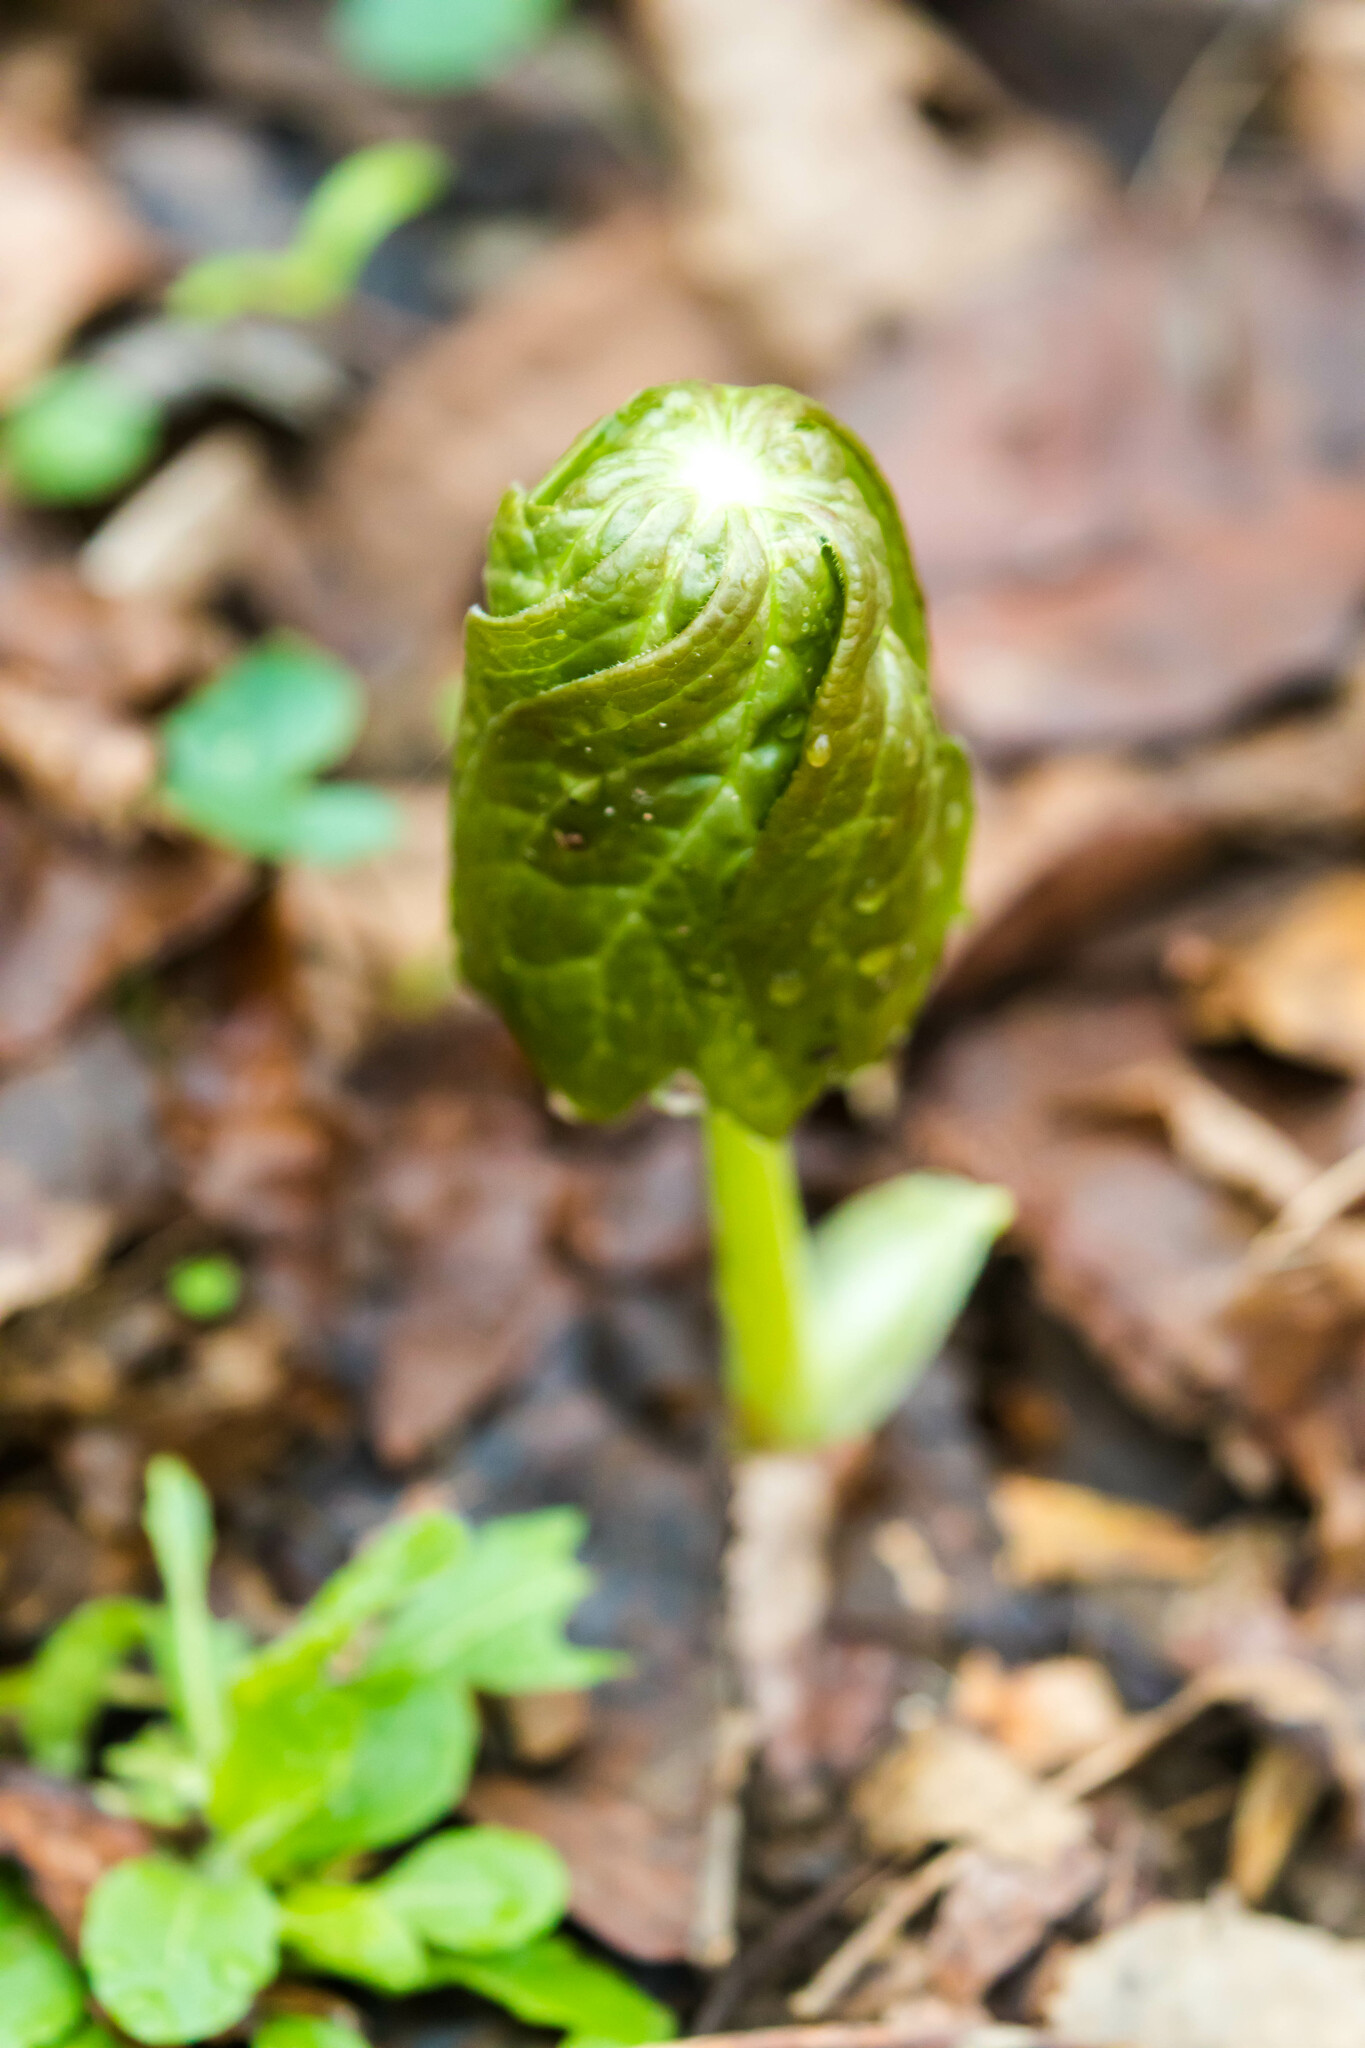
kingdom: Plantae
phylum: Tracheophyta
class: Magnoliopsida
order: Ranunculales
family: Berberidaceae
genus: Podophyllum
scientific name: Podophyllum peltatum
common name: Wild mandrake
